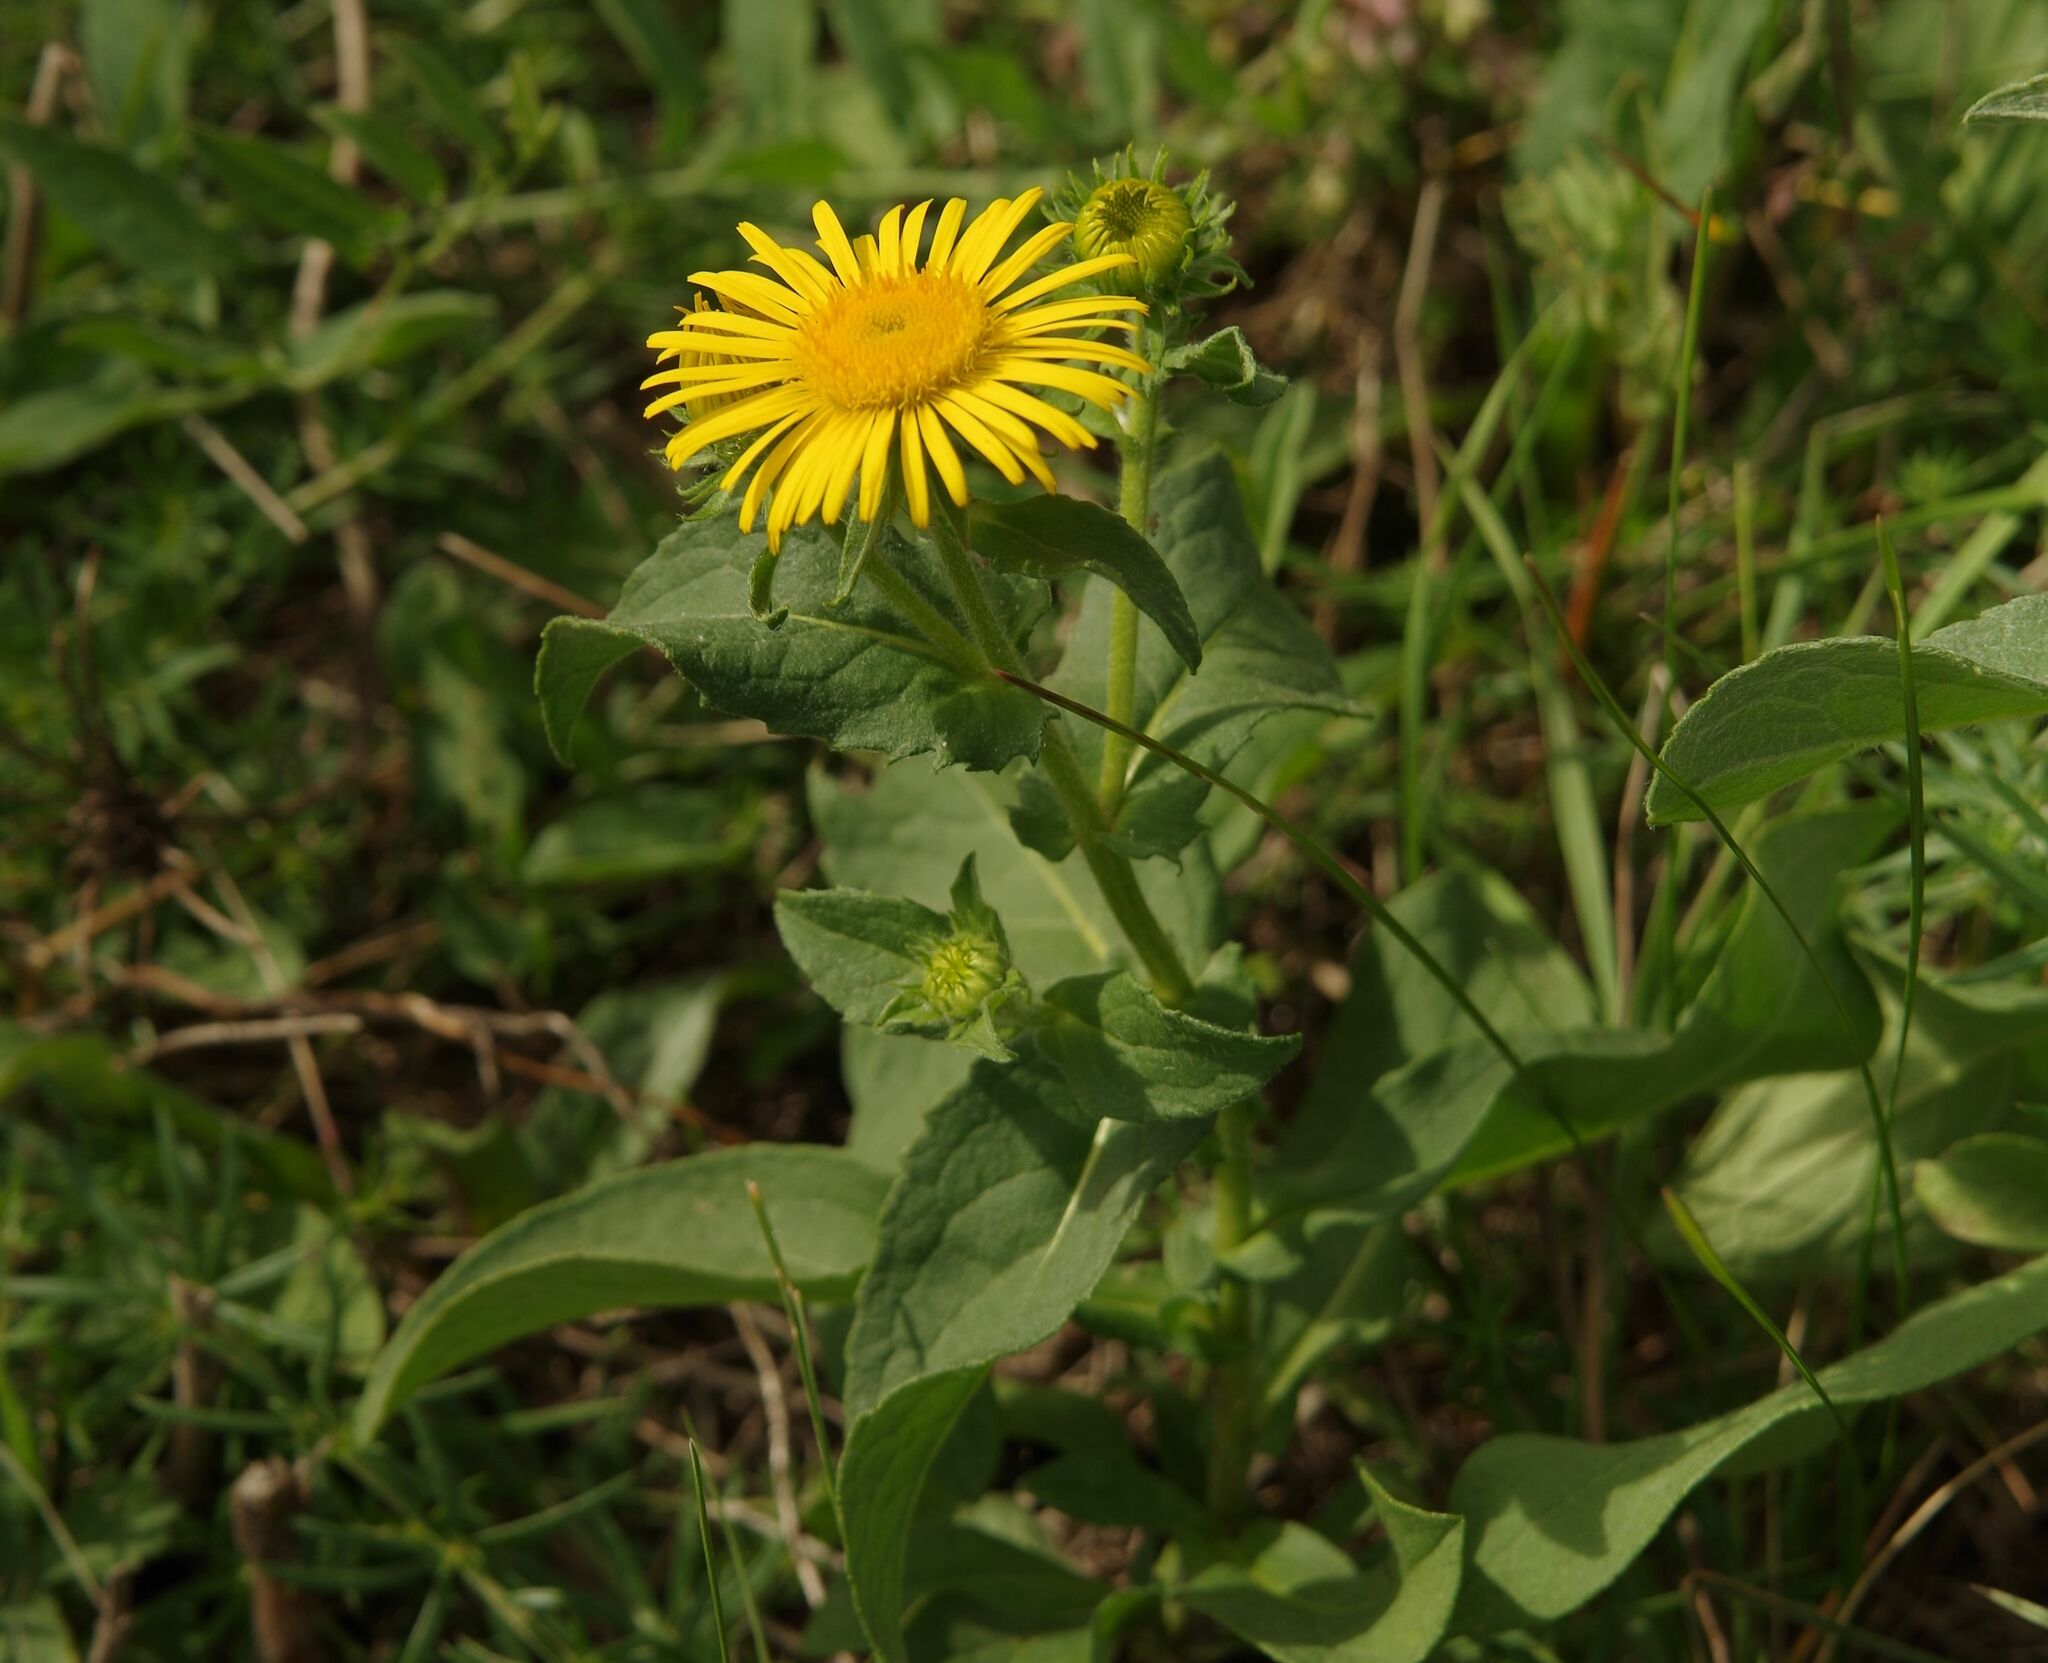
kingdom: Plantae
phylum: Tracheophyta
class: Magnoliopsida
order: Asterales
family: Asteraceae
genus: Pentanema
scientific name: Pentanema britannicum
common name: British elecampane
